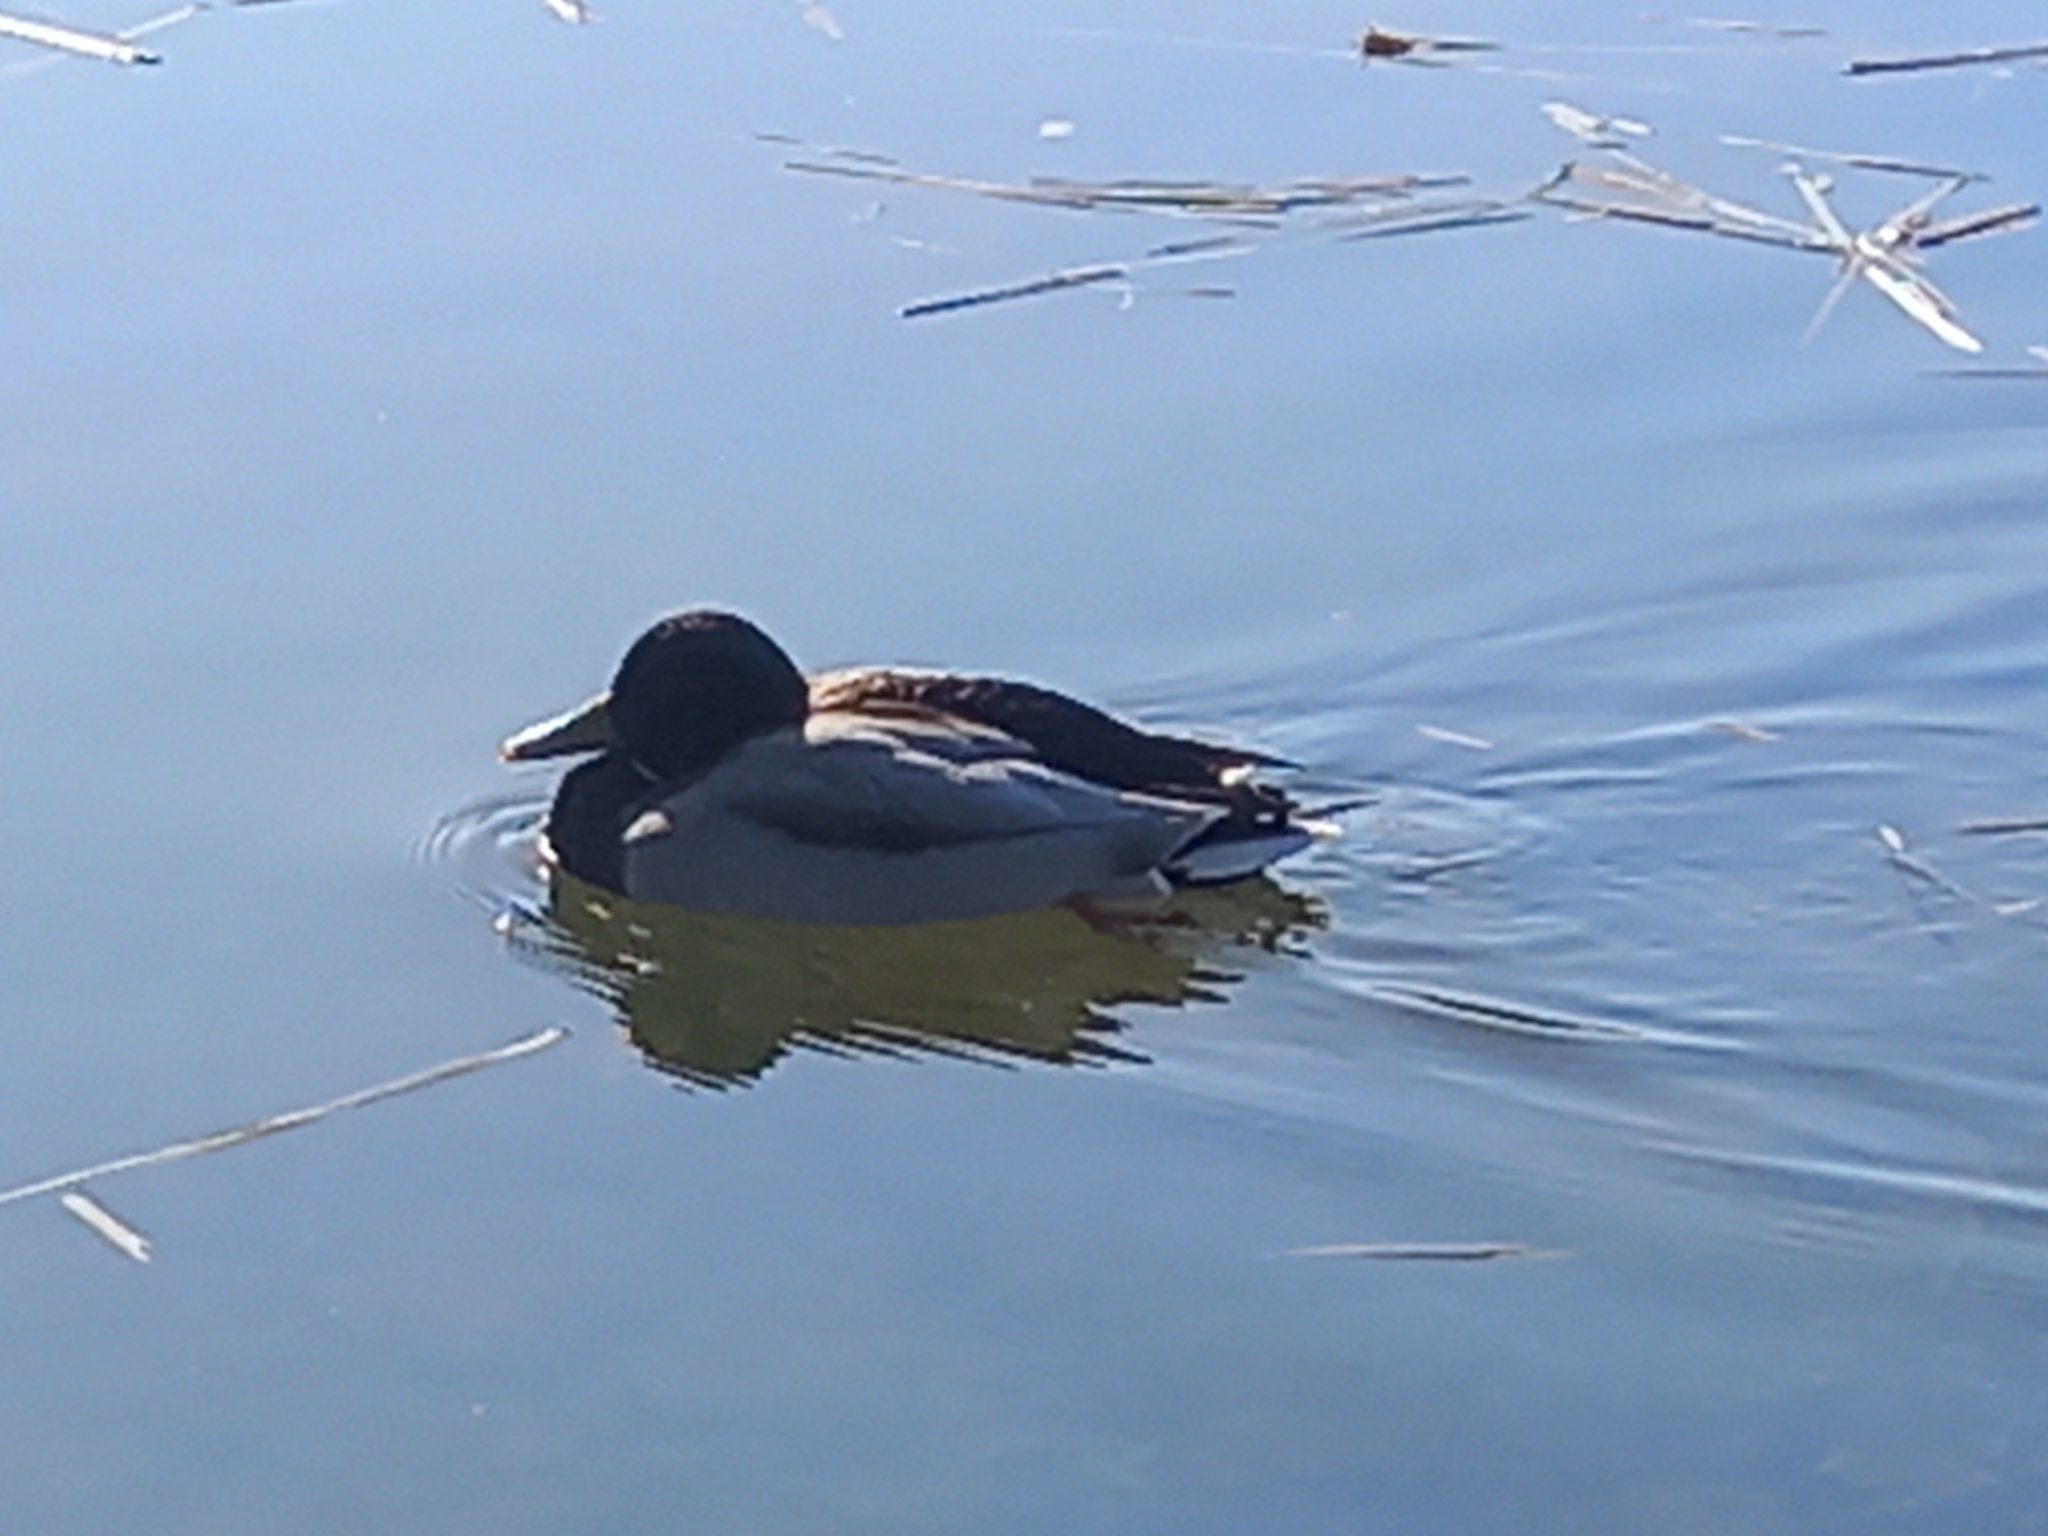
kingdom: Animalia
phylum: Chordata
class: Aves
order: Anseriformes
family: Anatidae
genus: Anas
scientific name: Anas platyrhynchos
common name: Mallard
